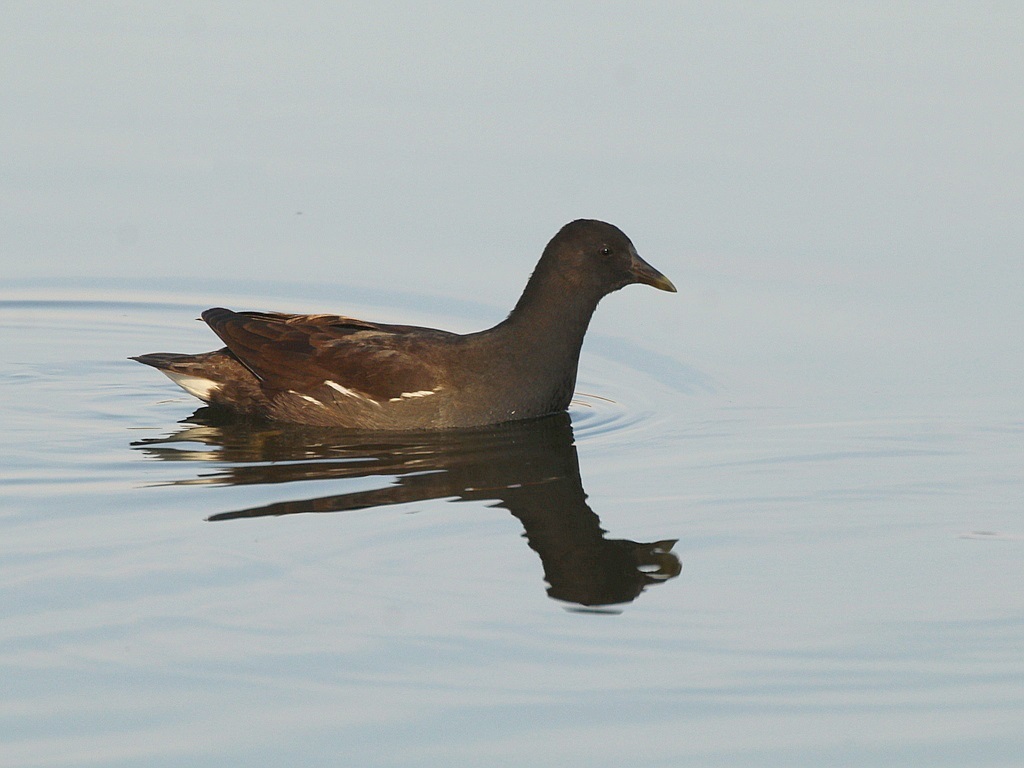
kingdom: Animalia
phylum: Chordata
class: Aves
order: Gruiformes
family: Rallidae
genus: Gallinula
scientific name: Gallinula chloropus
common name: Common moorhen
